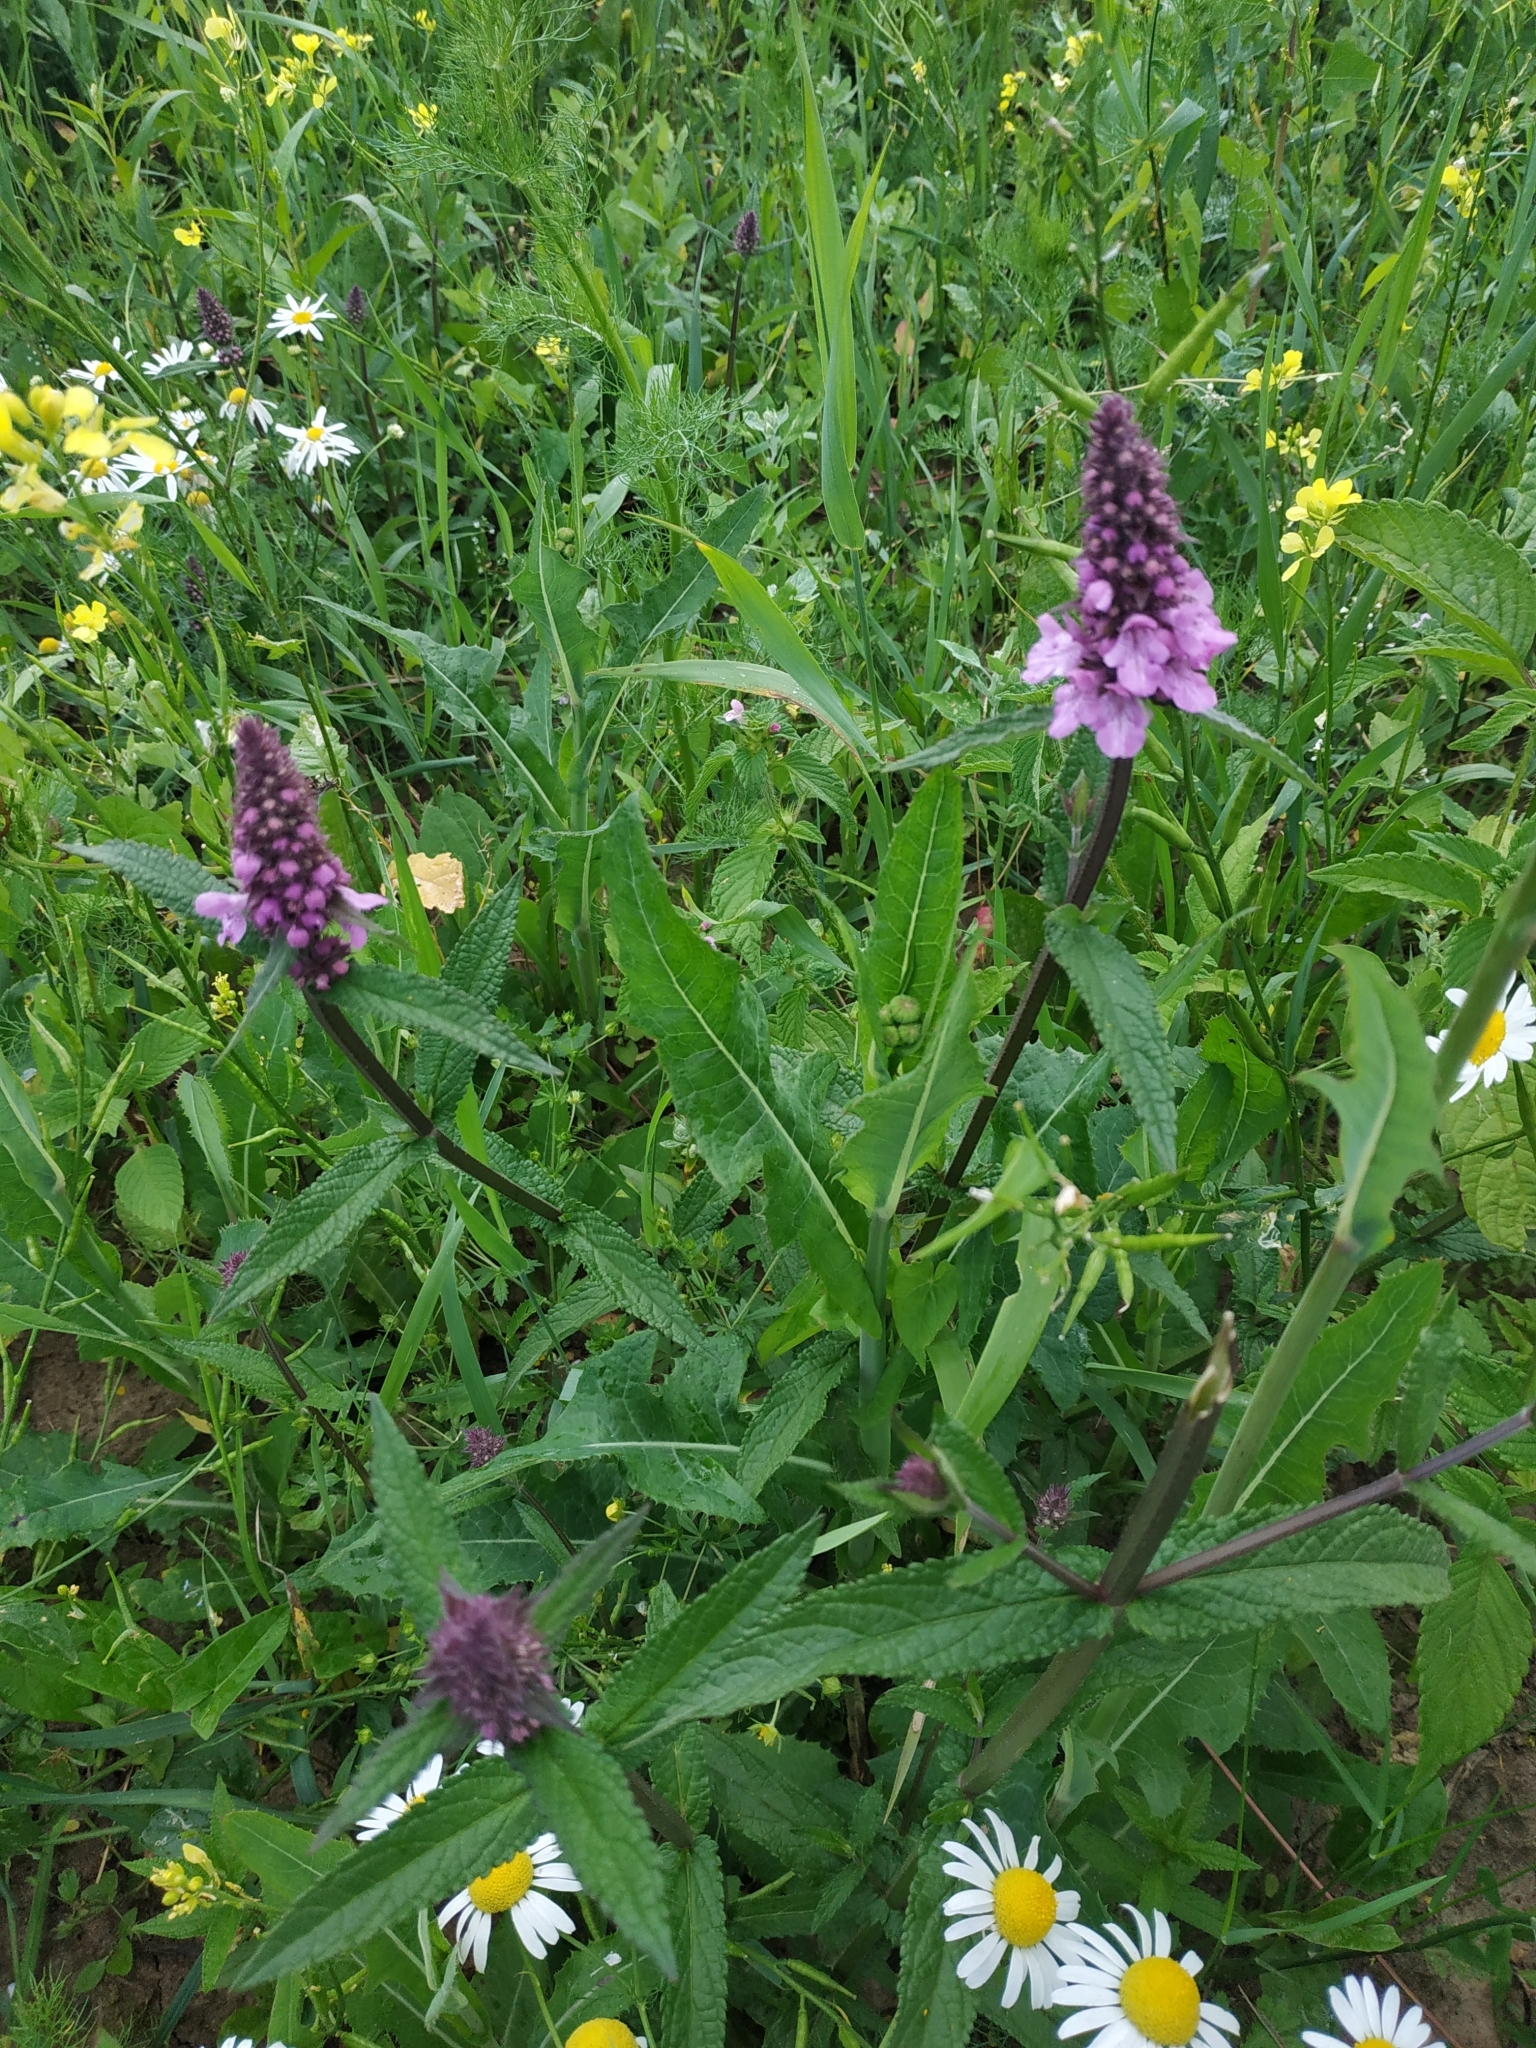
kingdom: Plantae
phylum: Tracheophyta
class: Magnoliopsida
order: Lamiales
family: Lamiaceae
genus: Stachys
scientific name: Stachys palustris
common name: Marsh woundwort
